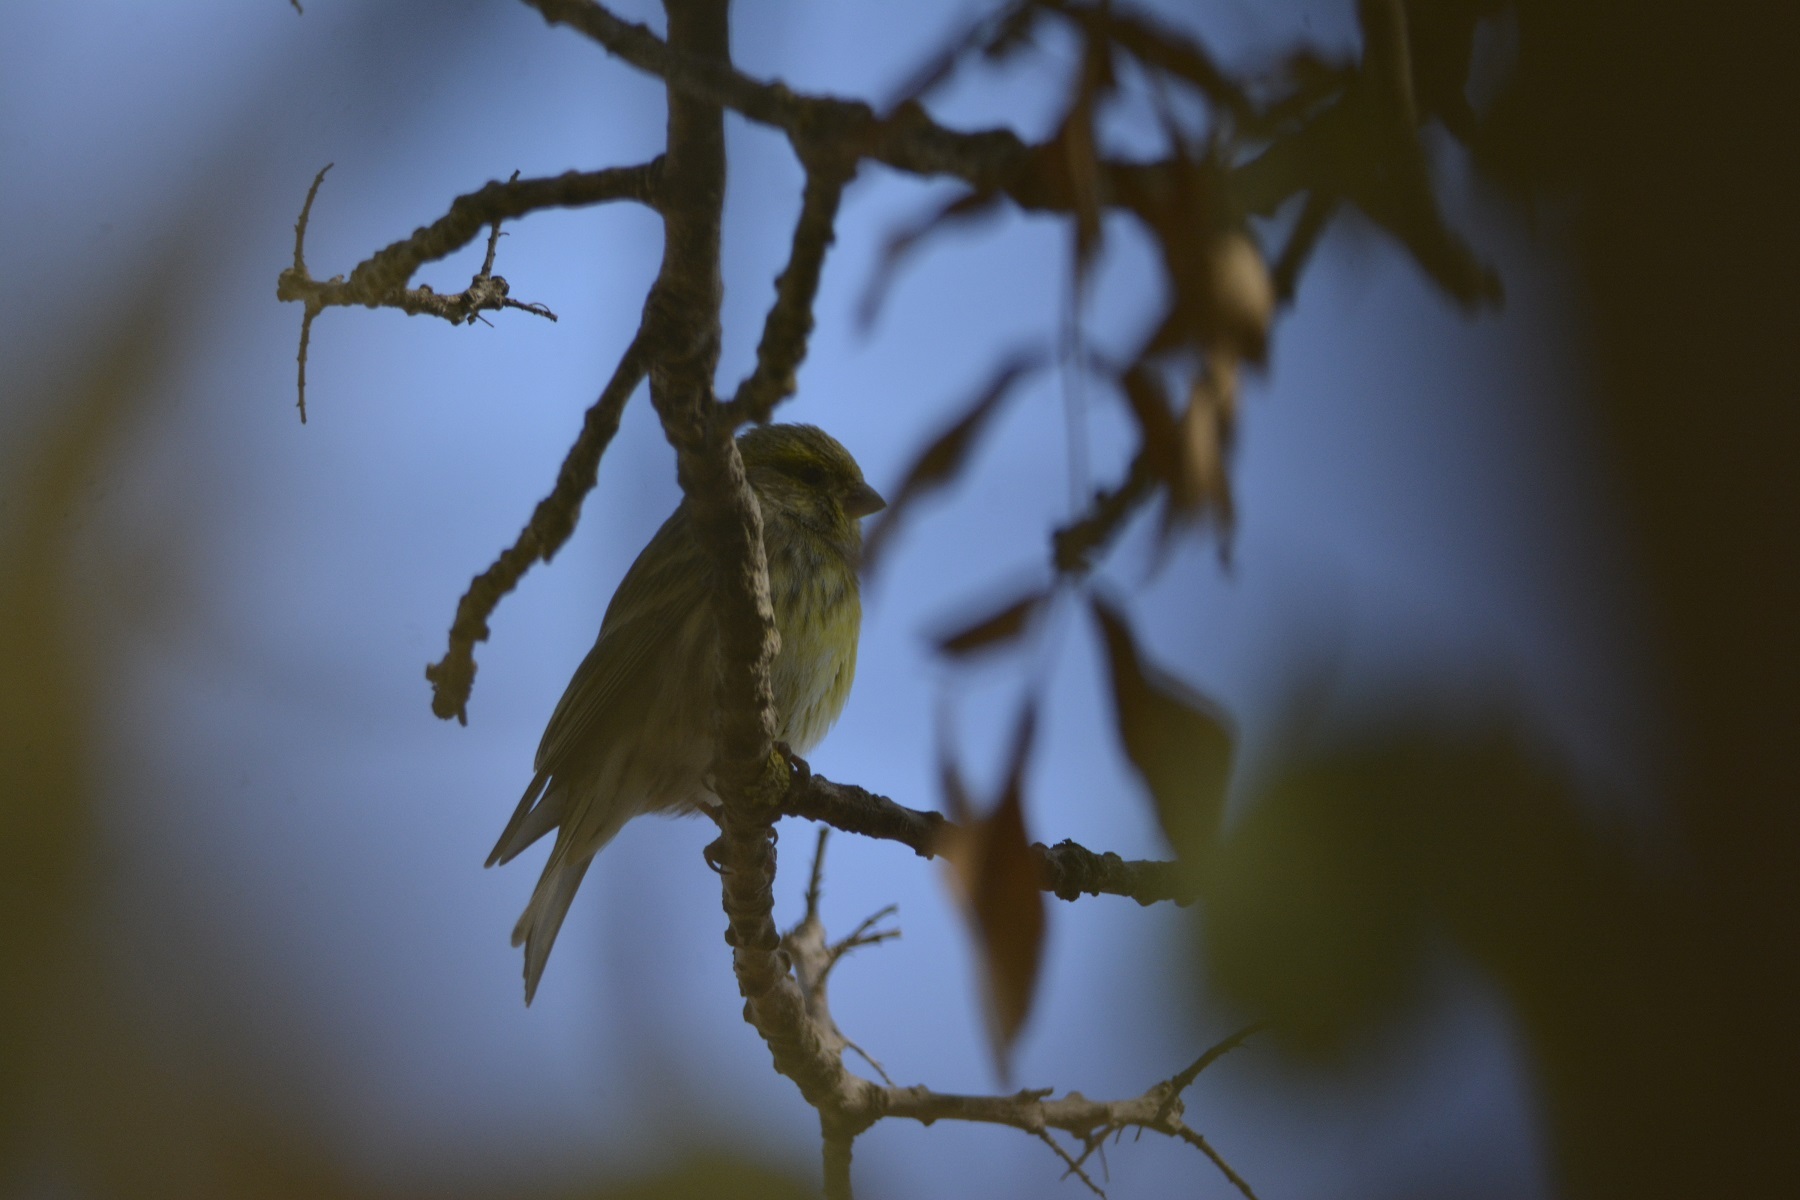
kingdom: Animalia
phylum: Chordata
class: Aves
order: Passeriformes
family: Fringillidae
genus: Serinus
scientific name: Serinus serinus
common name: European serin
